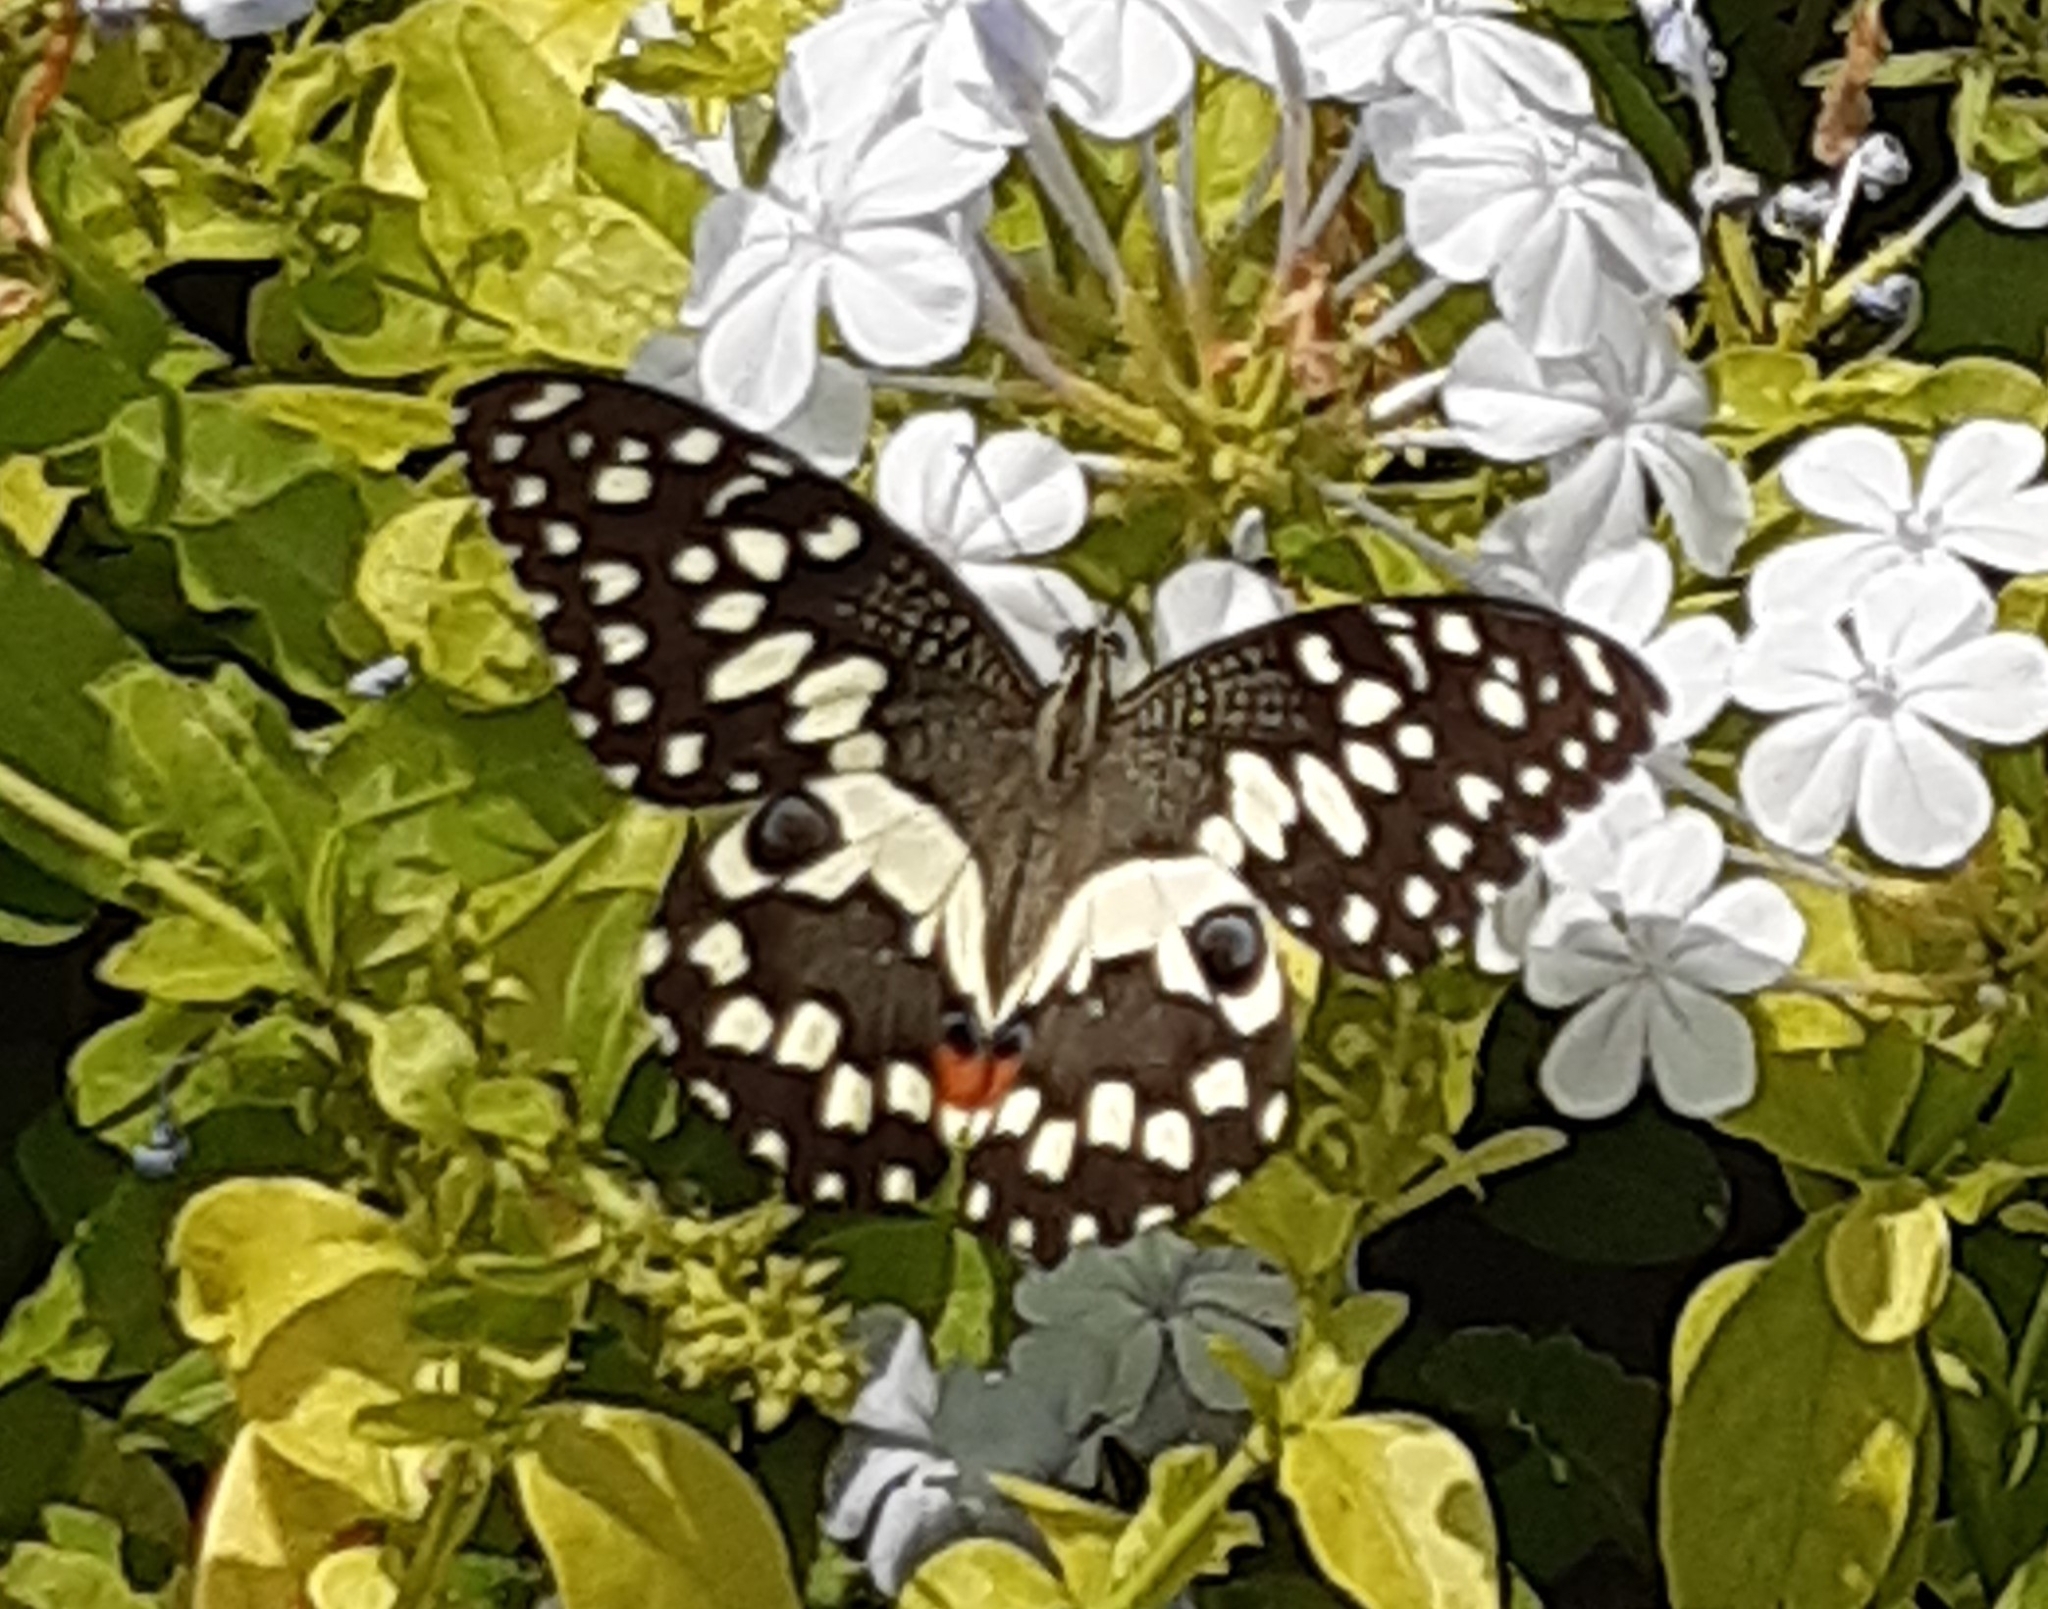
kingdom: Animalia
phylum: Arthropoda
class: Insecta
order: Lepidoptera
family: Papilionidae
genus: Papilio
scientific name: Papilio demoleus
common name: Lime butterfly
